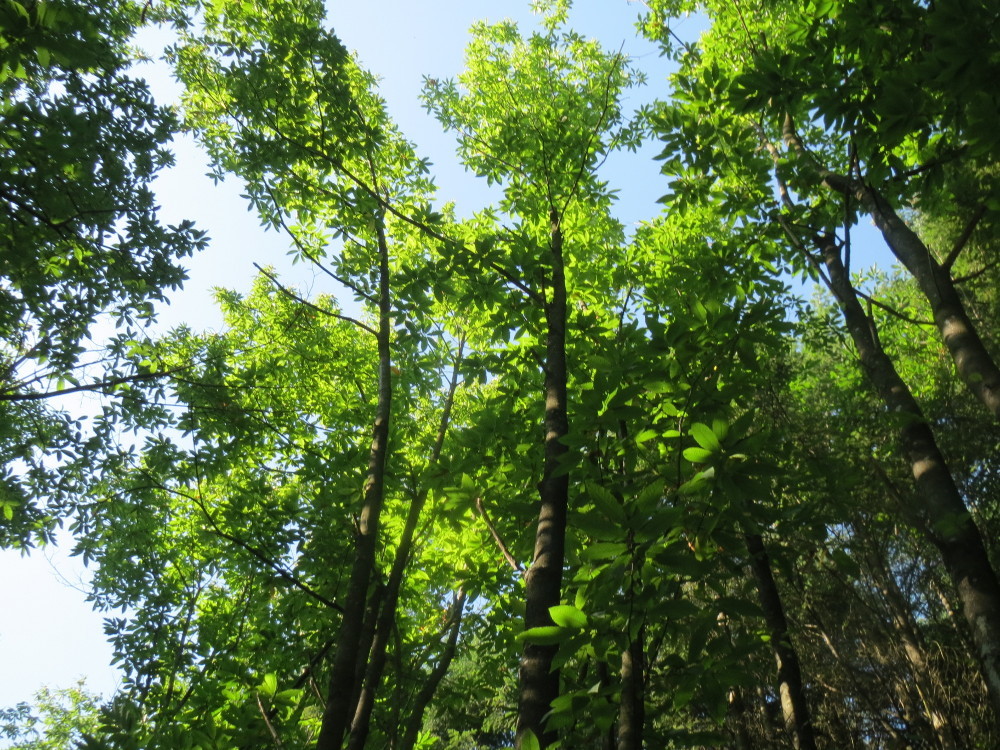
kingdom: Plantae
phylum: Tracheophyta
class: Magnoliopsida
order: Fagales
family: Fagaceae
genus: Castanea
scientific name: Castanea sativa
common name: Sweet chestnut
